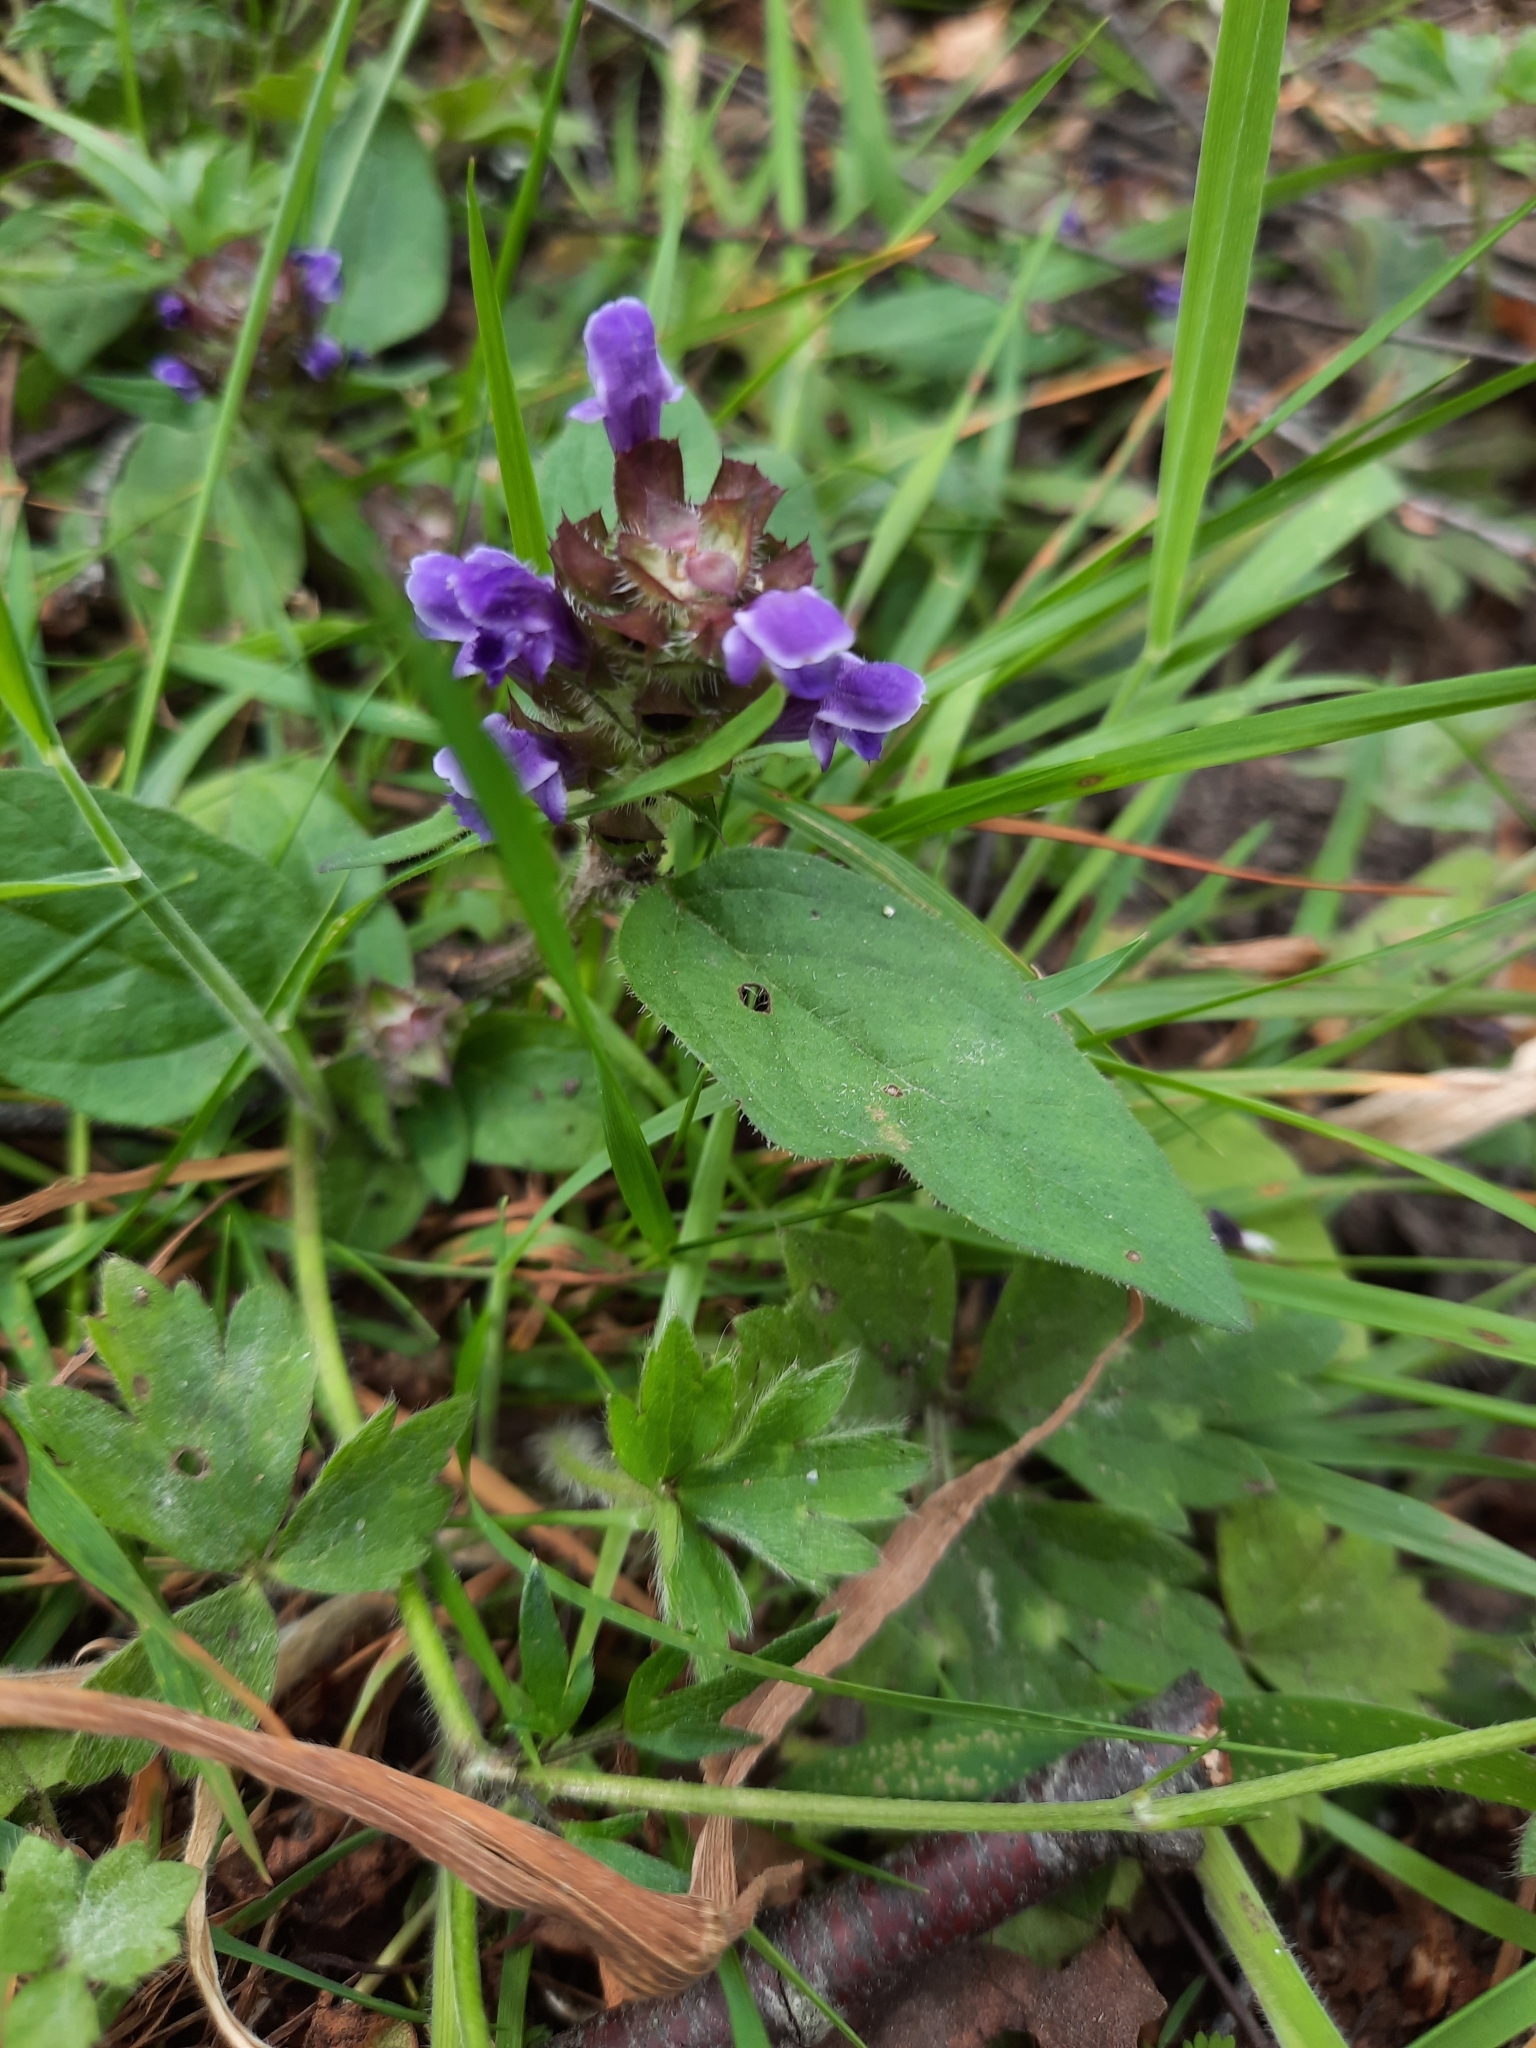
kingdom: Plantae
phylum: Tracheophyta
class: Magnoliopsida
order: Lamiales
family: Lamiaceae
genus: Prunella
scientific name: Prunella vulgaris
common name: Heal-all
